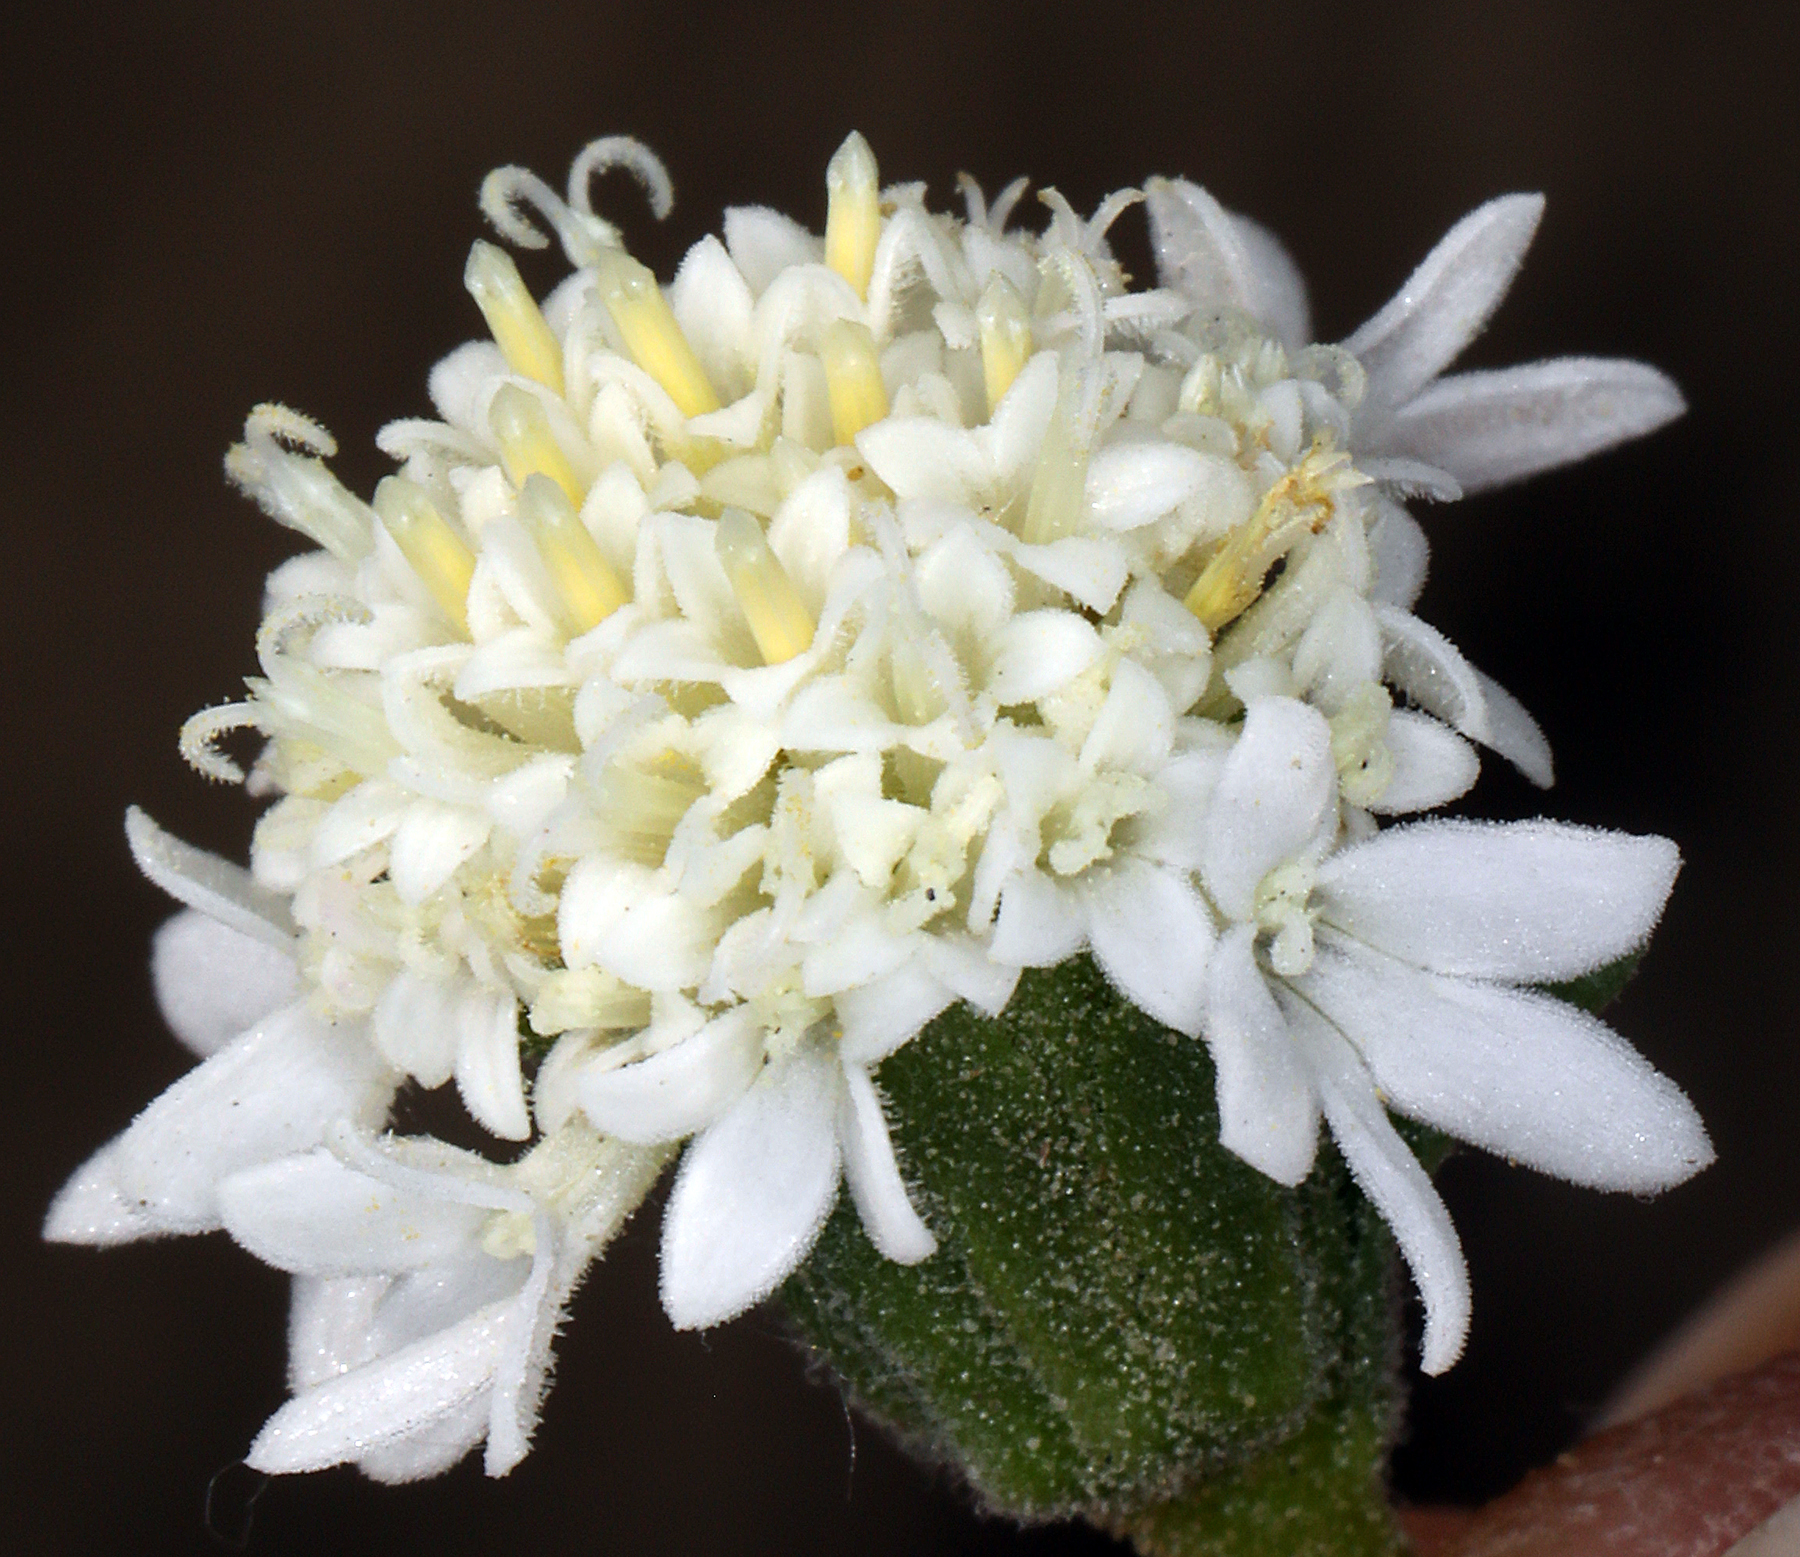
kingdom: Plantae
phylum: Tracheophyta
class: Magnoliopsida
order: Asterales
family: Asteraceae
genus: Chaenactis
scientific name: Chaenactis stevioides
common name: Desert pincushion
